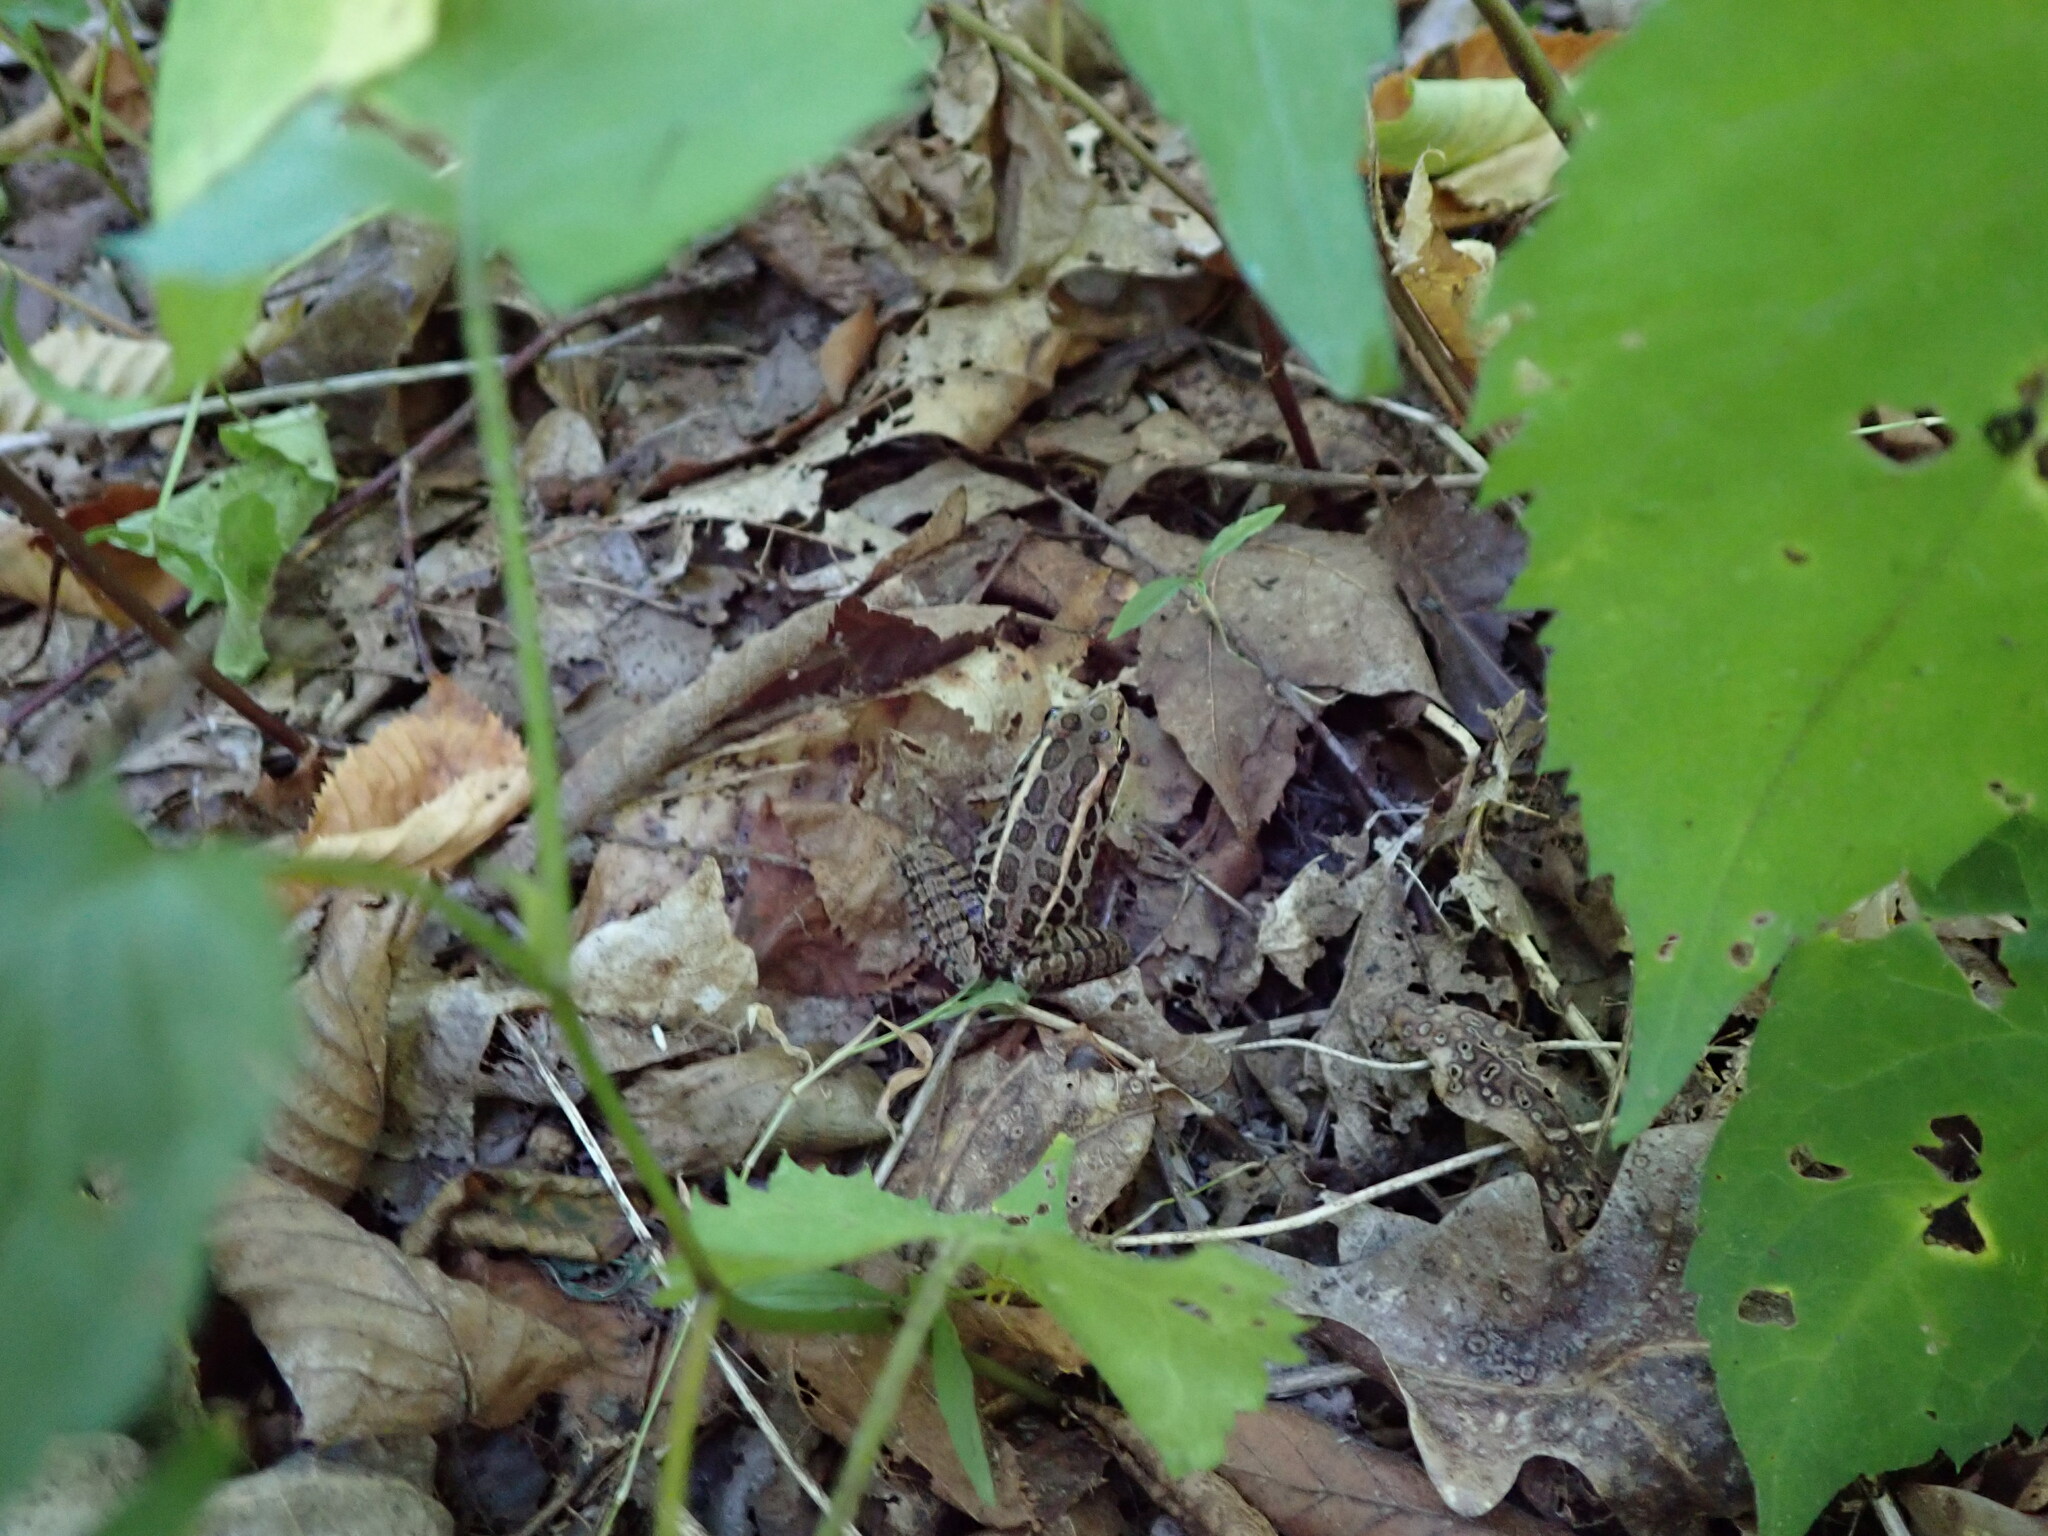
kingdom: Animalia
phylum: Chordata
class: Amphibia
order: Anura
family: Ranidae
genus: Lithobates
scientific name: Lithobates palustris
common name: Pickerel frog
